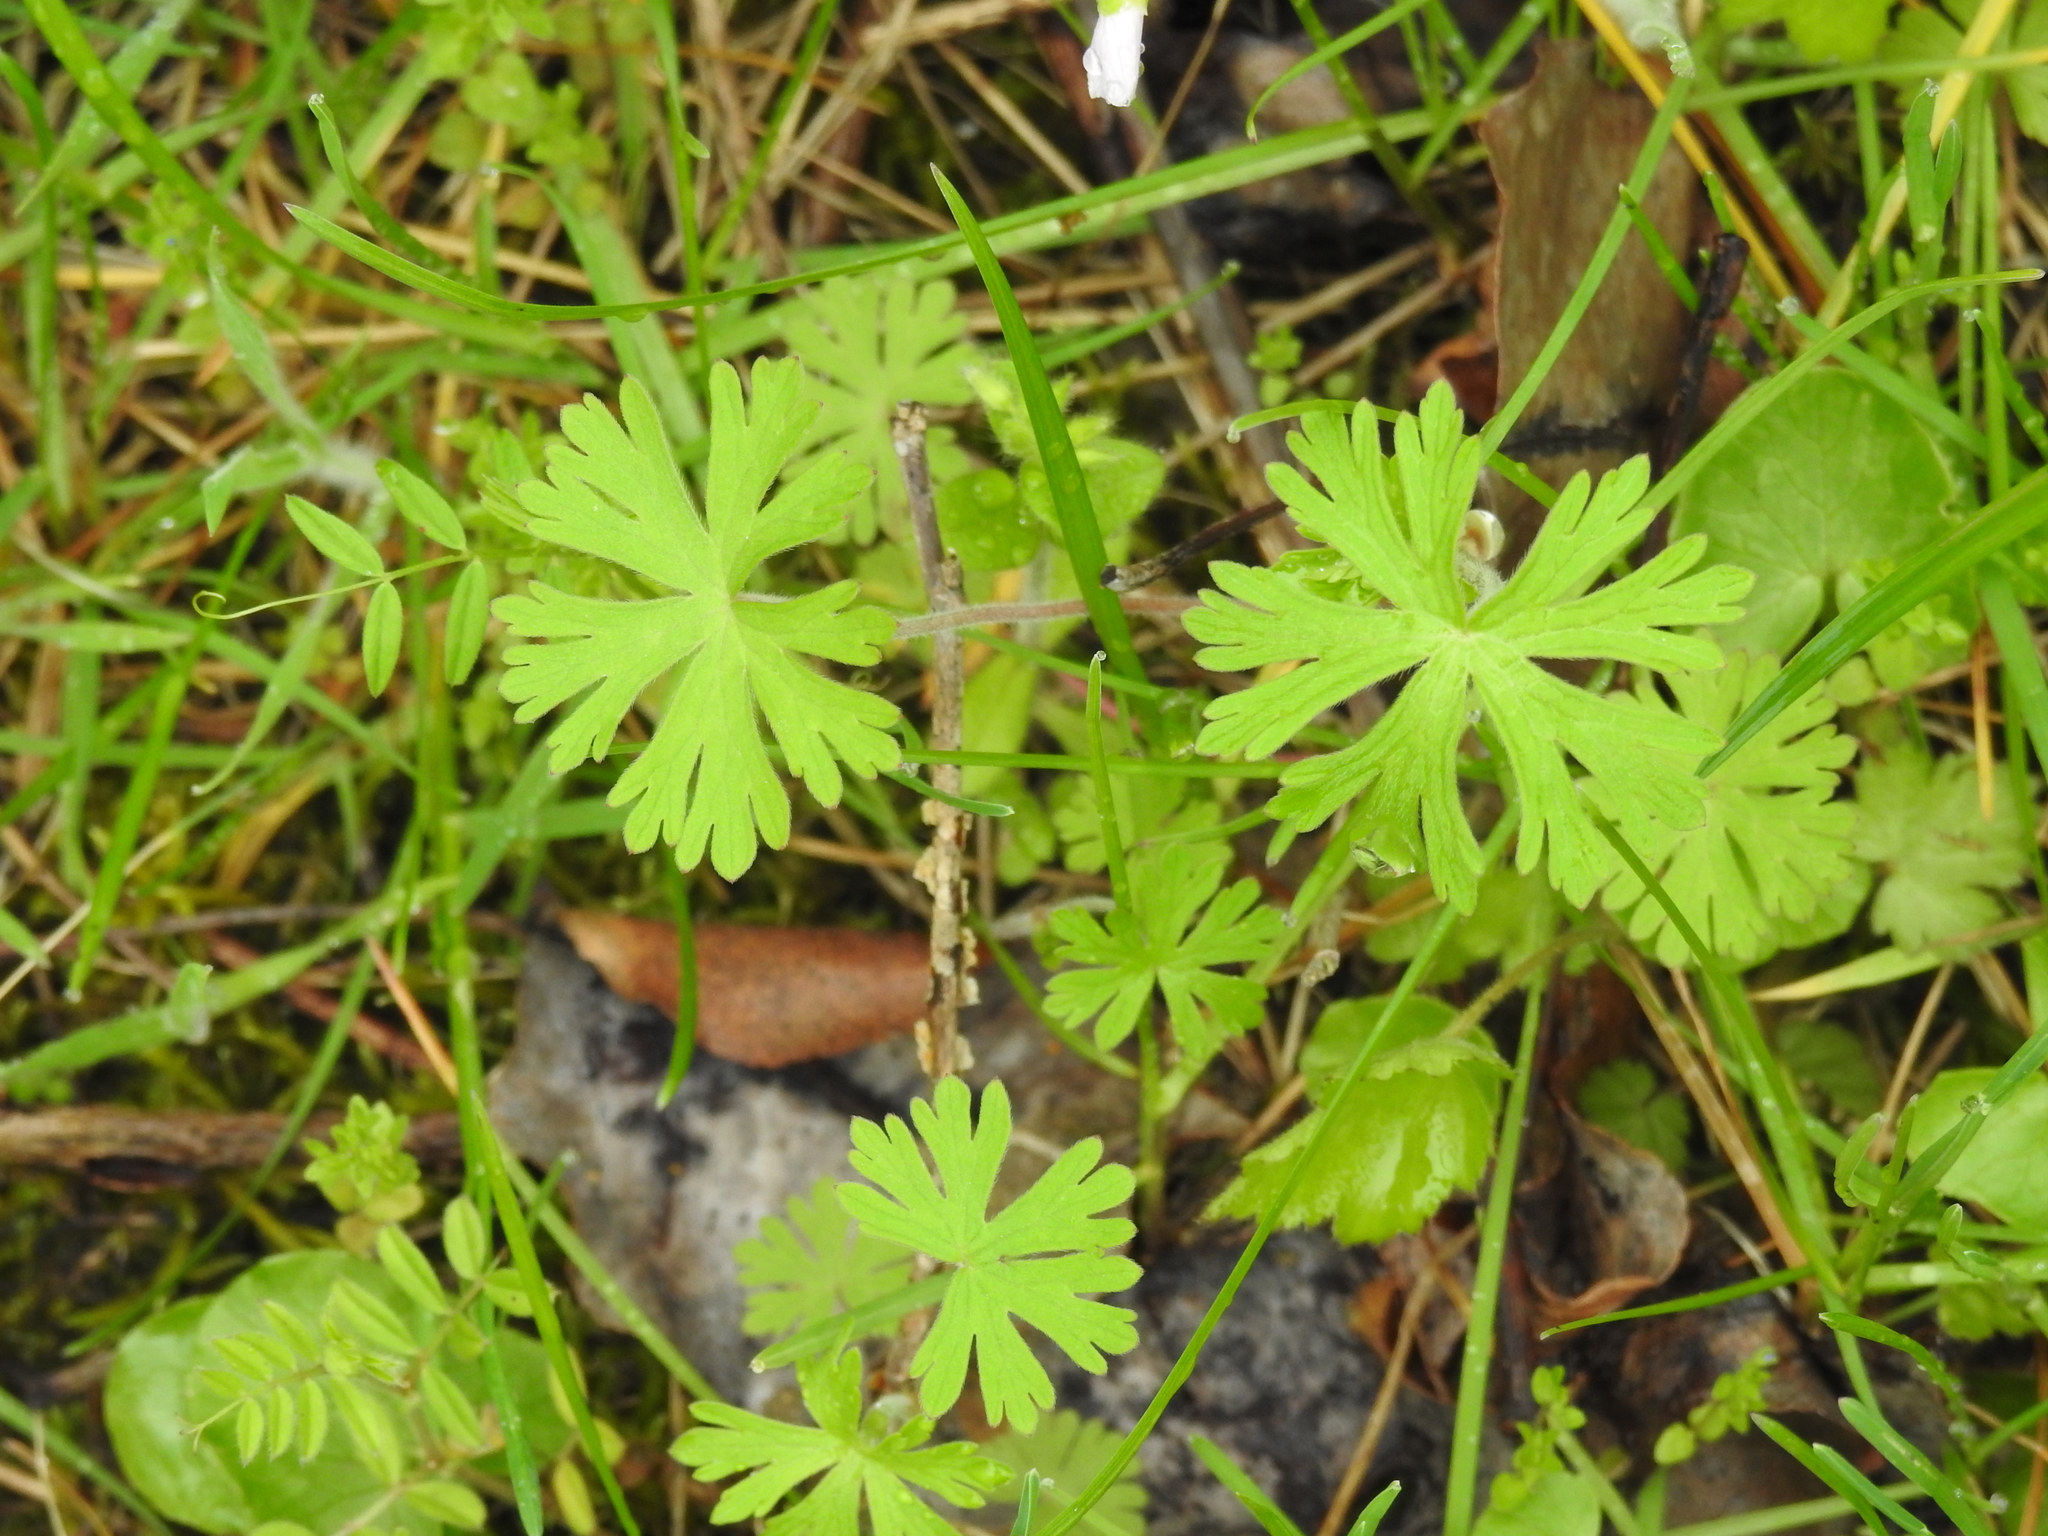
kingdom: Plantae
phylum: Tracheophyta
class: Magnoliopsida
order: Geraniales
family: Geraniaceae
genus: Geranium
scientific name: Geranium carolinianum
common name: Carolina crane's-bill
